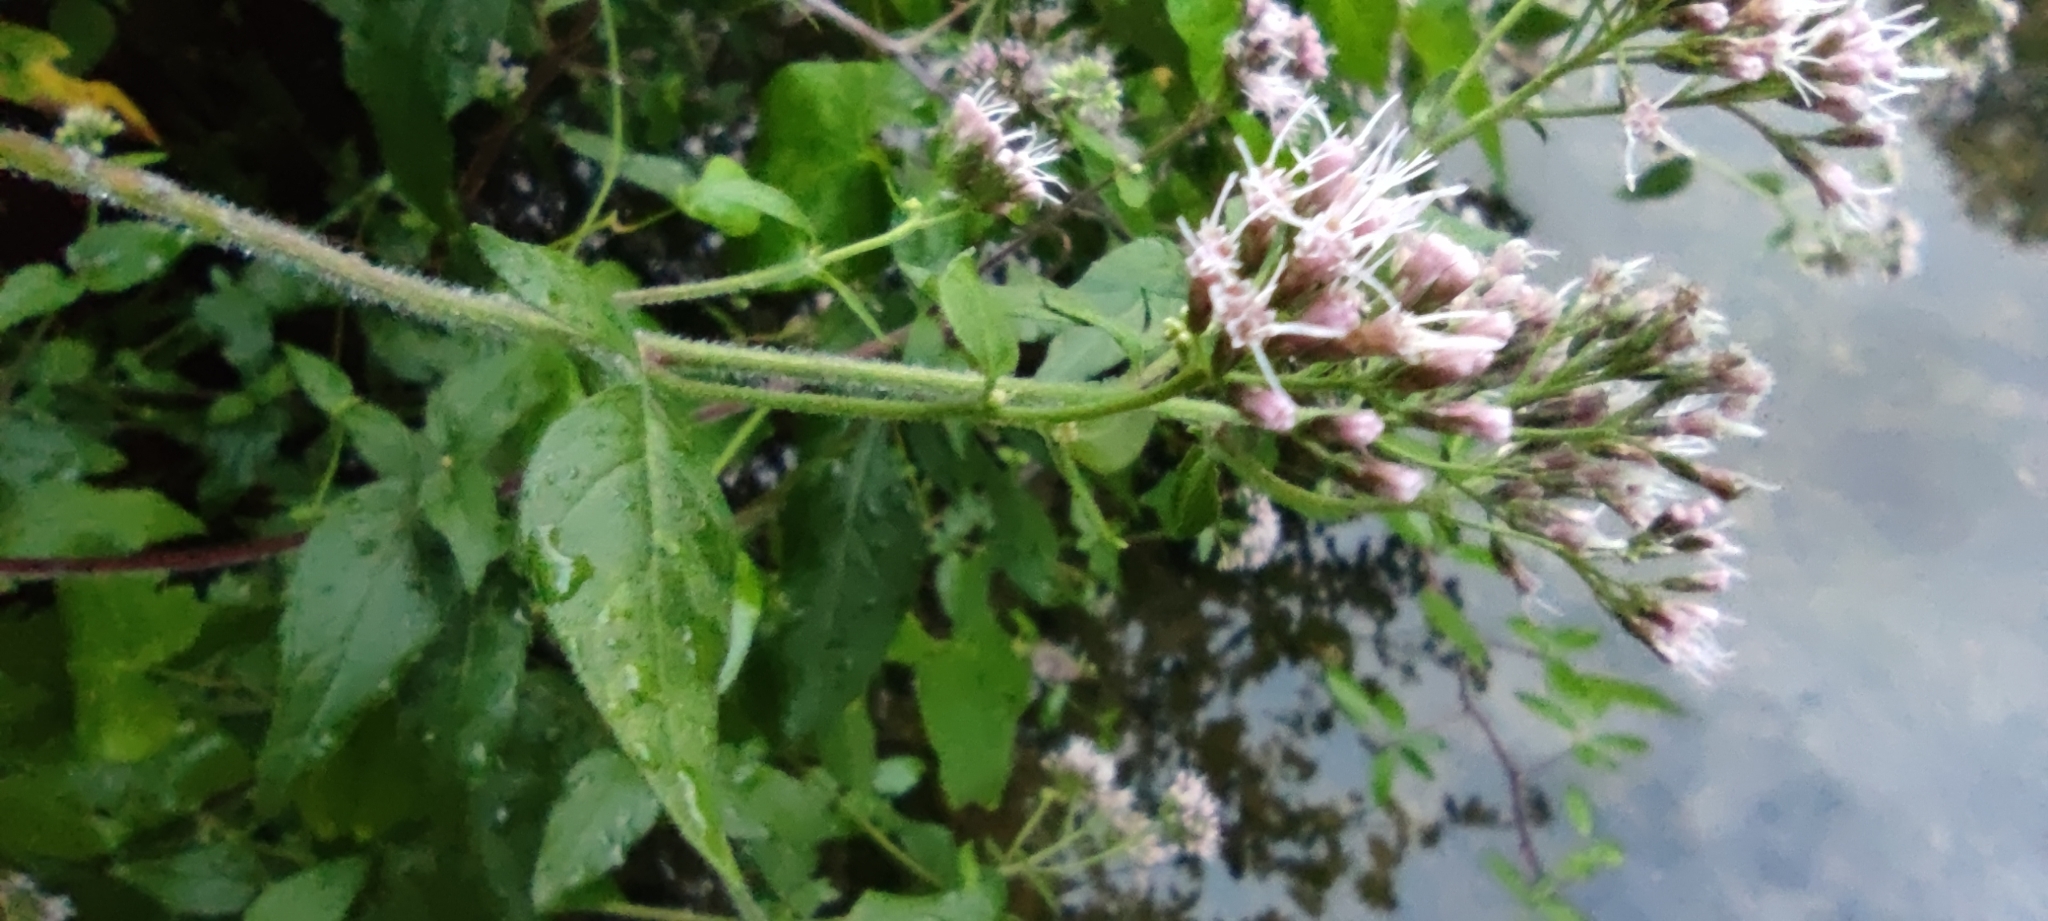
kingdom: Plantae
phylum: Tracheophyta
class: Magnoliopsida
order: Asterales
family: Asteraceae
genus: Eupatorium
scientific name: Eupatorium cannabinum
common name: Hemp-agrimony
